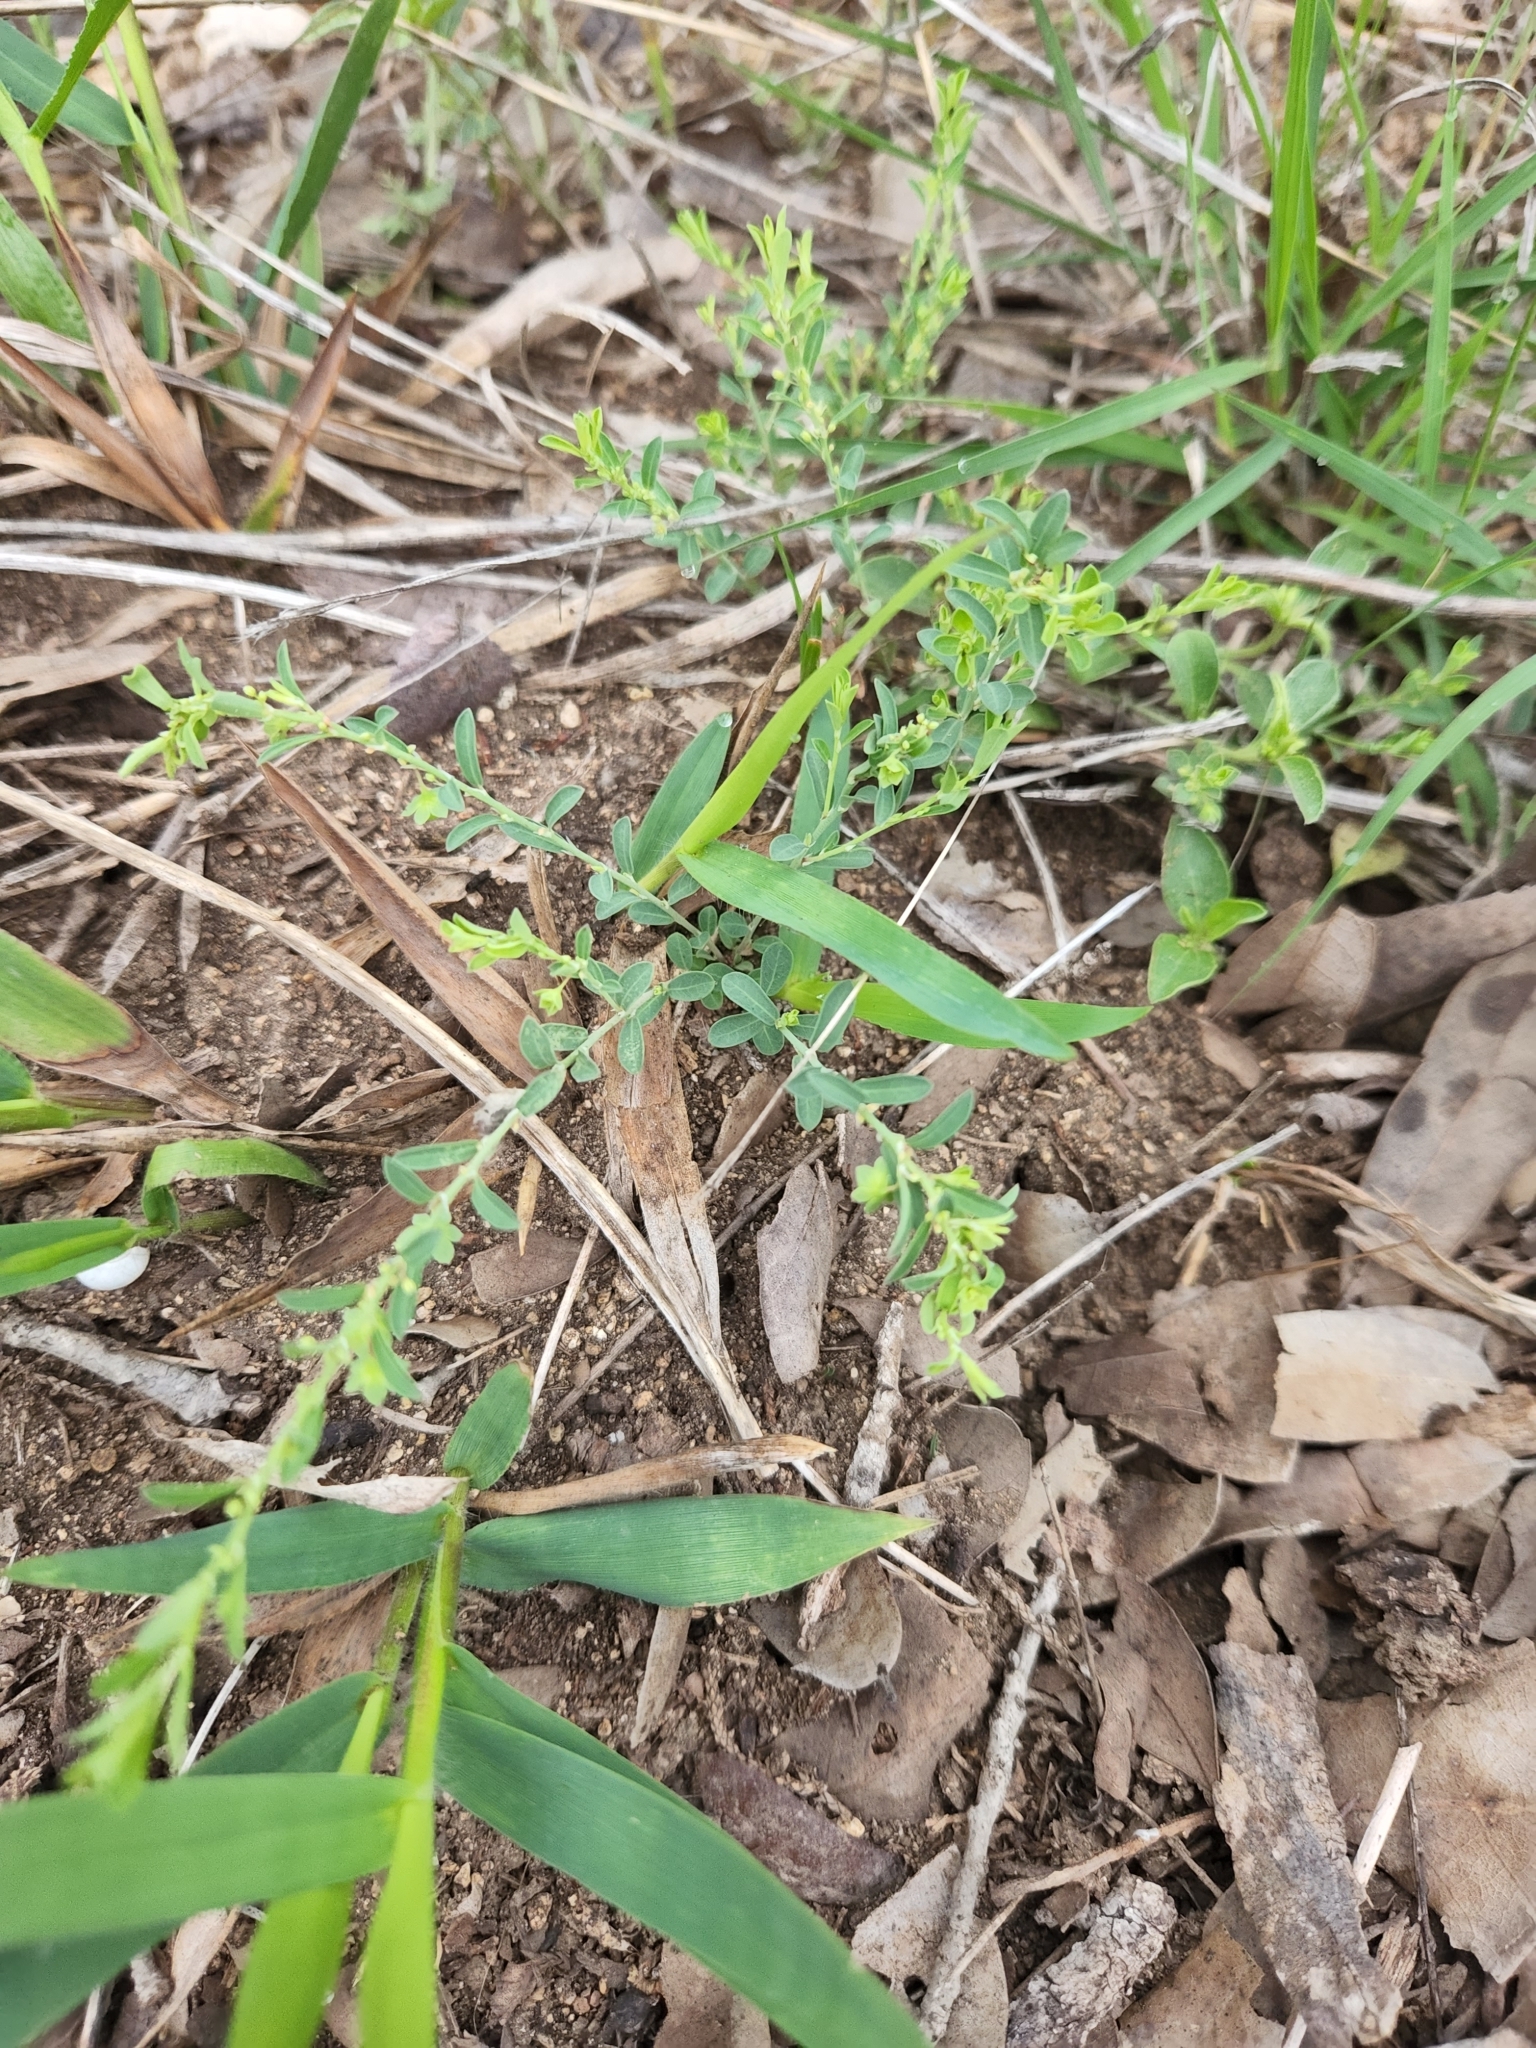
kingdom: Plantae
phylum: Tracheophyta
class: Magnoliopsida
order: Malpighiales
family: Phyllanthaceae
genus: Phyllanthus
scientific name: Phyllanthus polygonoides
